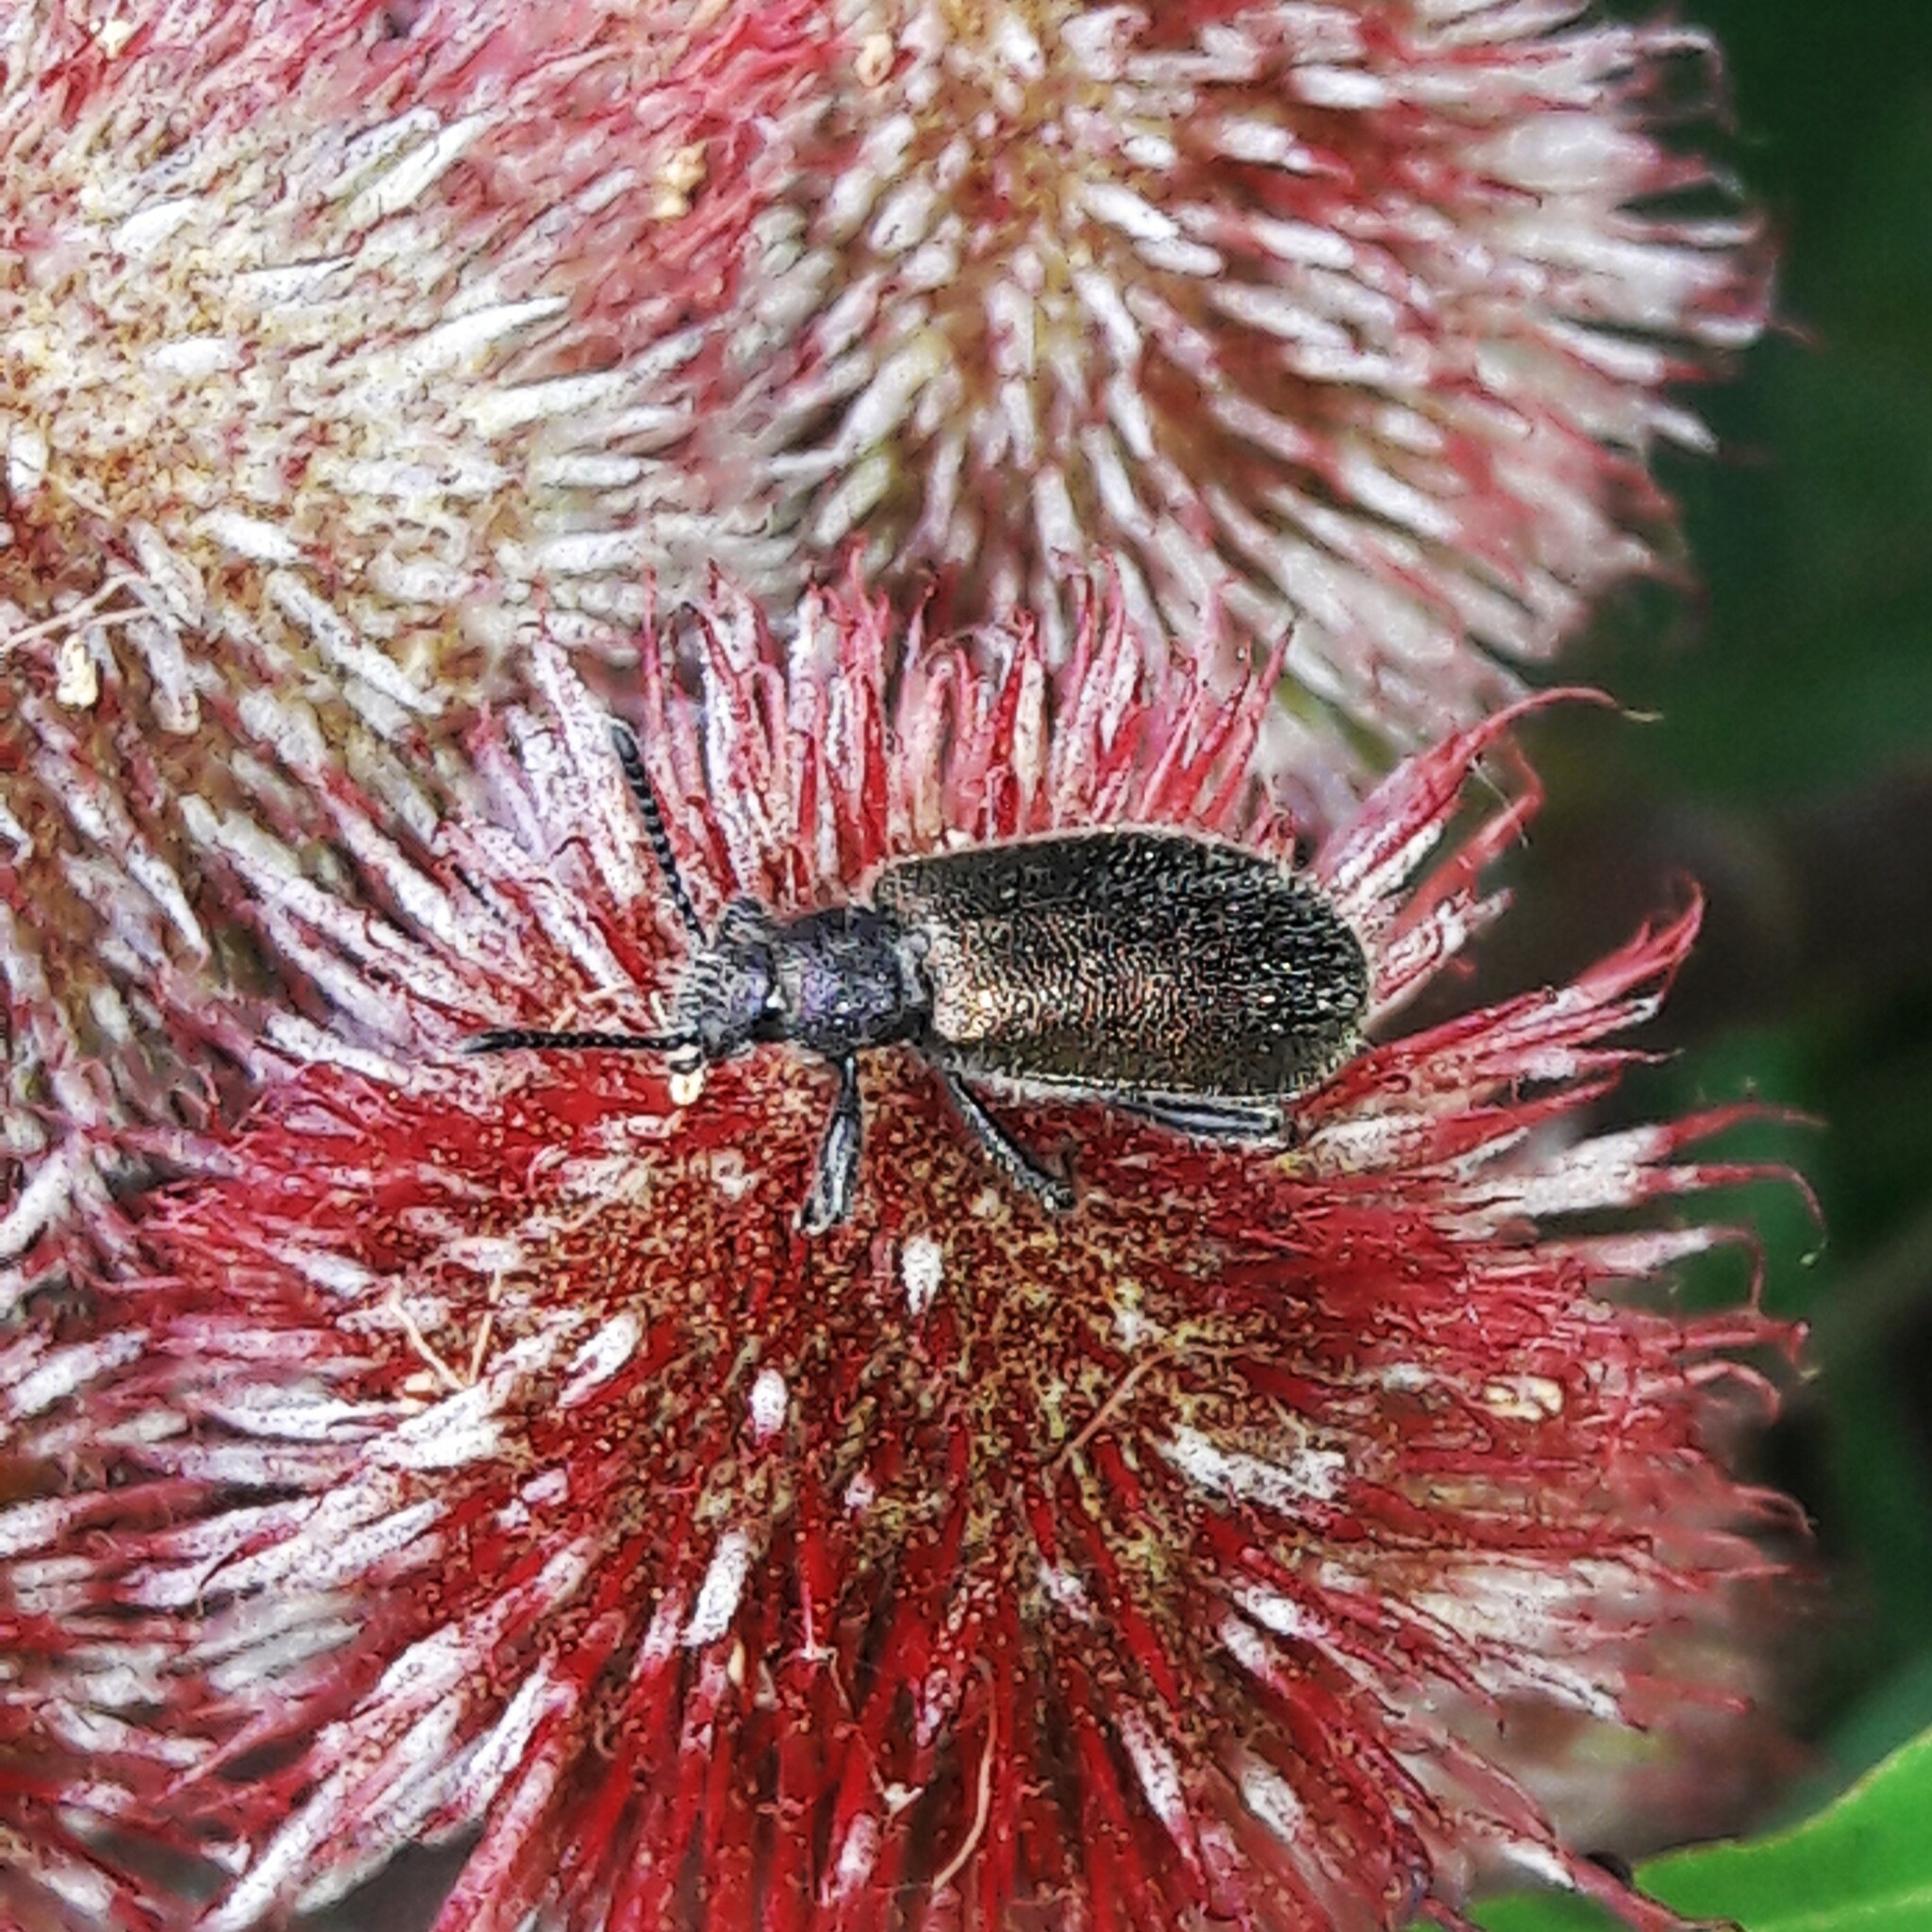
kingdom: Animalia
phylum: Arthropoda
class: Insecta
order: Coleoptera
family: Tenebrionidae
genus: Lagria
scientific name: Lagria villosa
